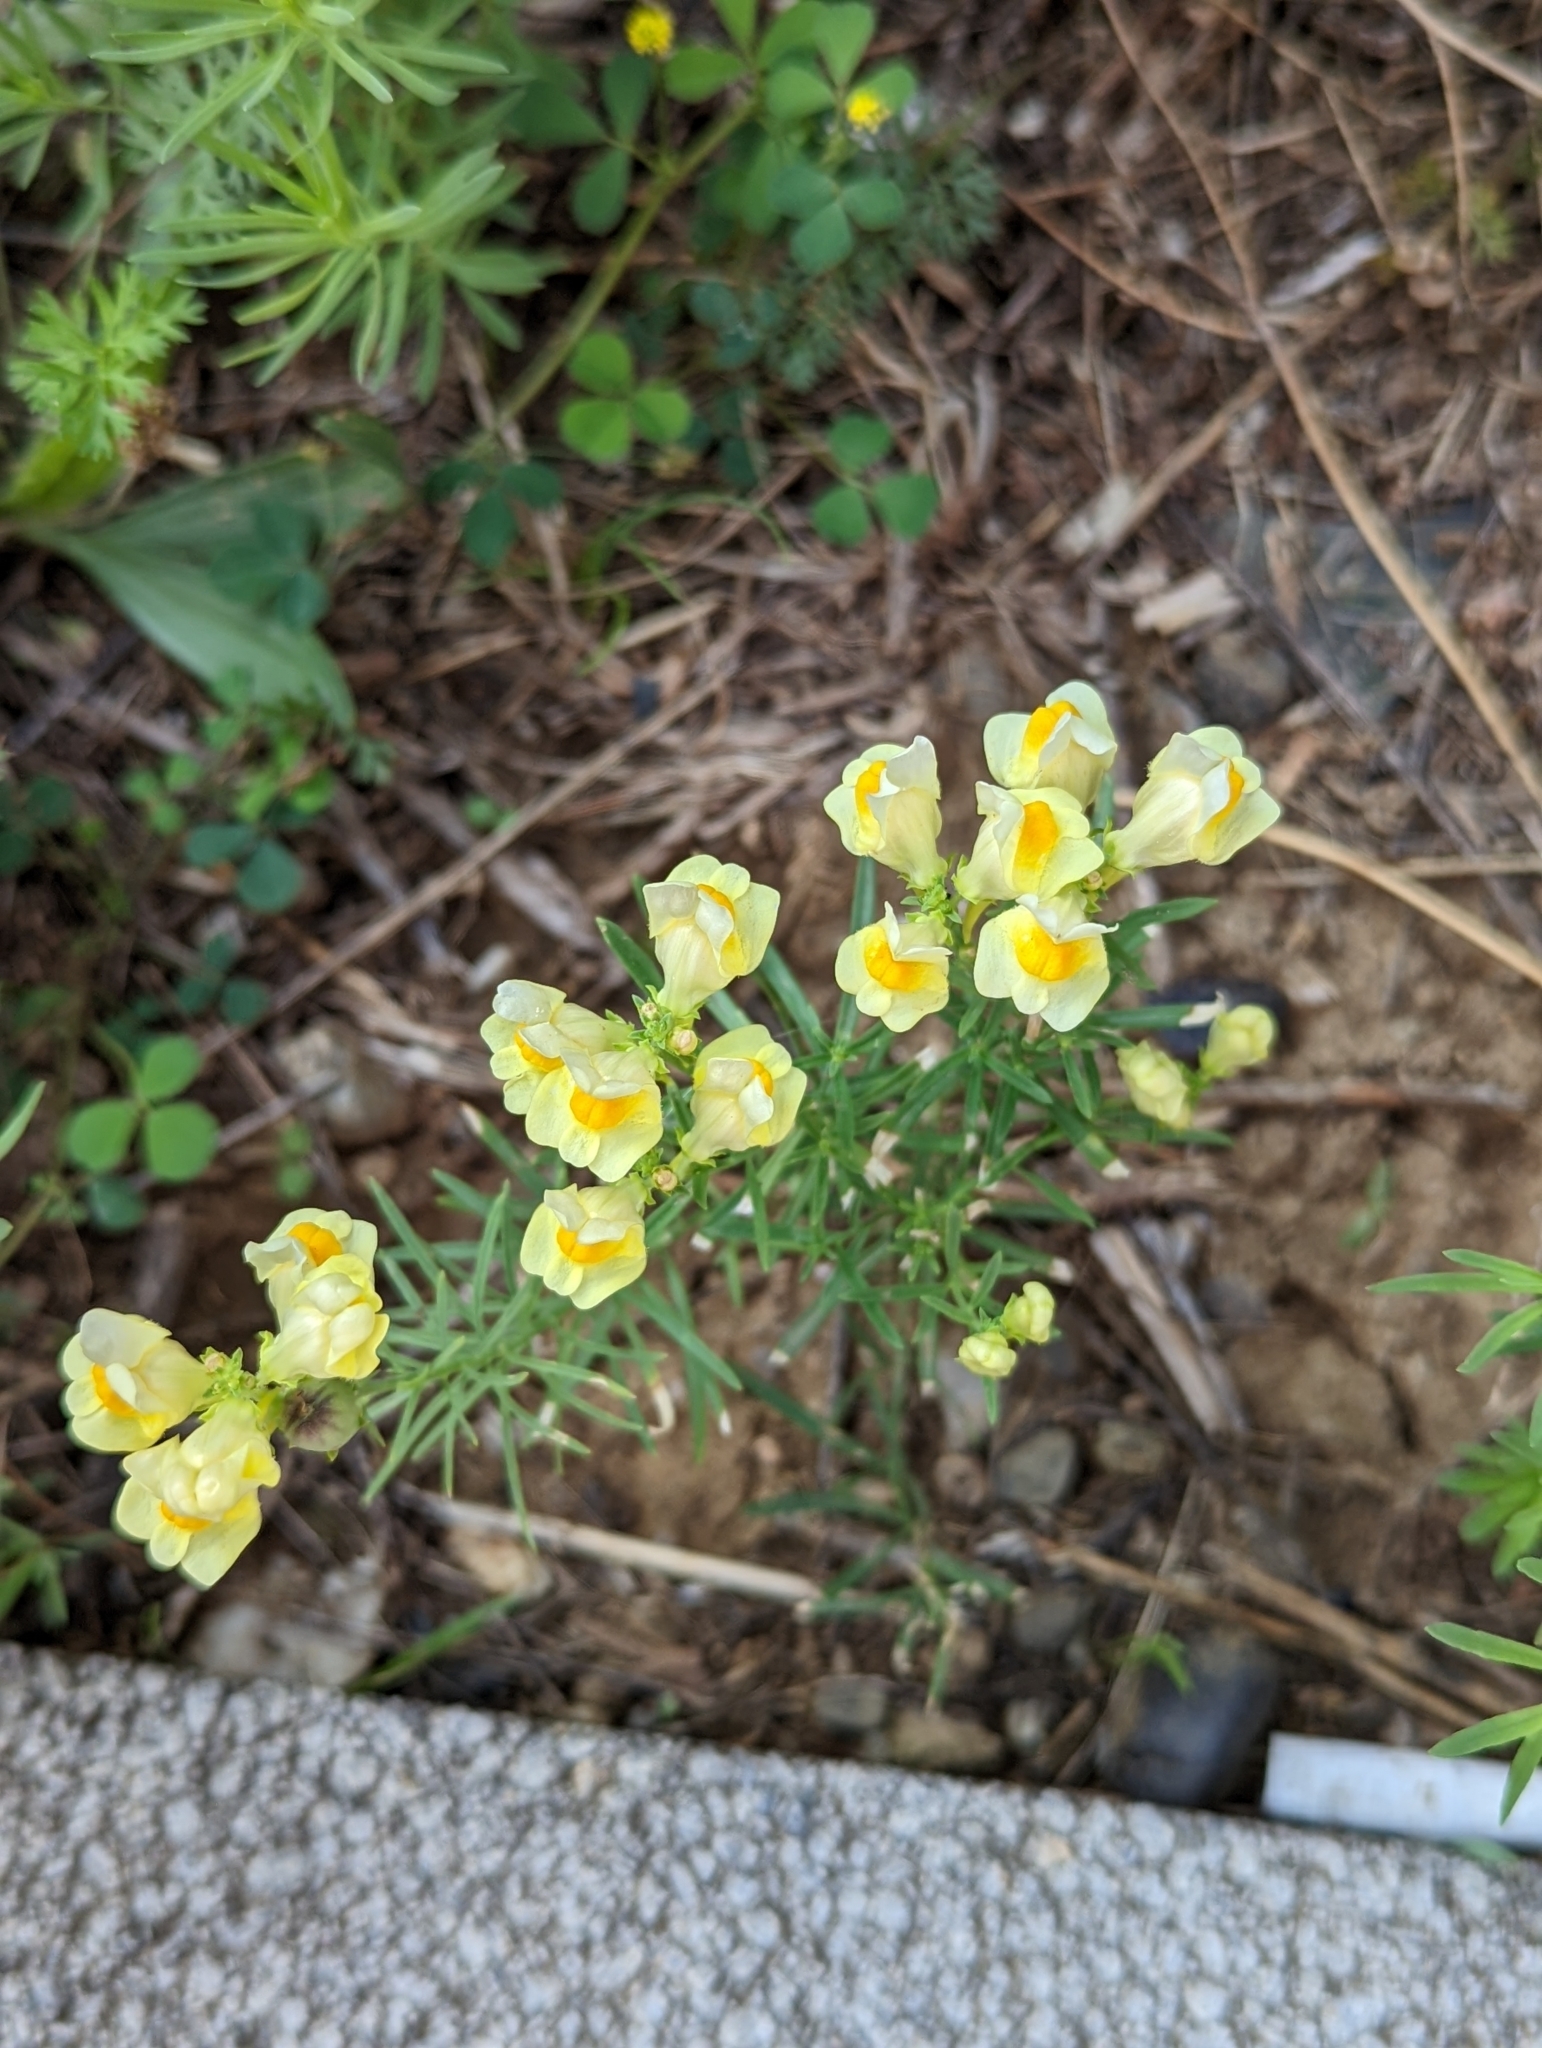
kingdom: Plantae
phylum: Tracheophyta
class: Magnoliopsida
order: Lamiales
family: Plantaginaceae
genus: Linaria
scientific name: Linaria vulgaris
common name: Butter and eggs
